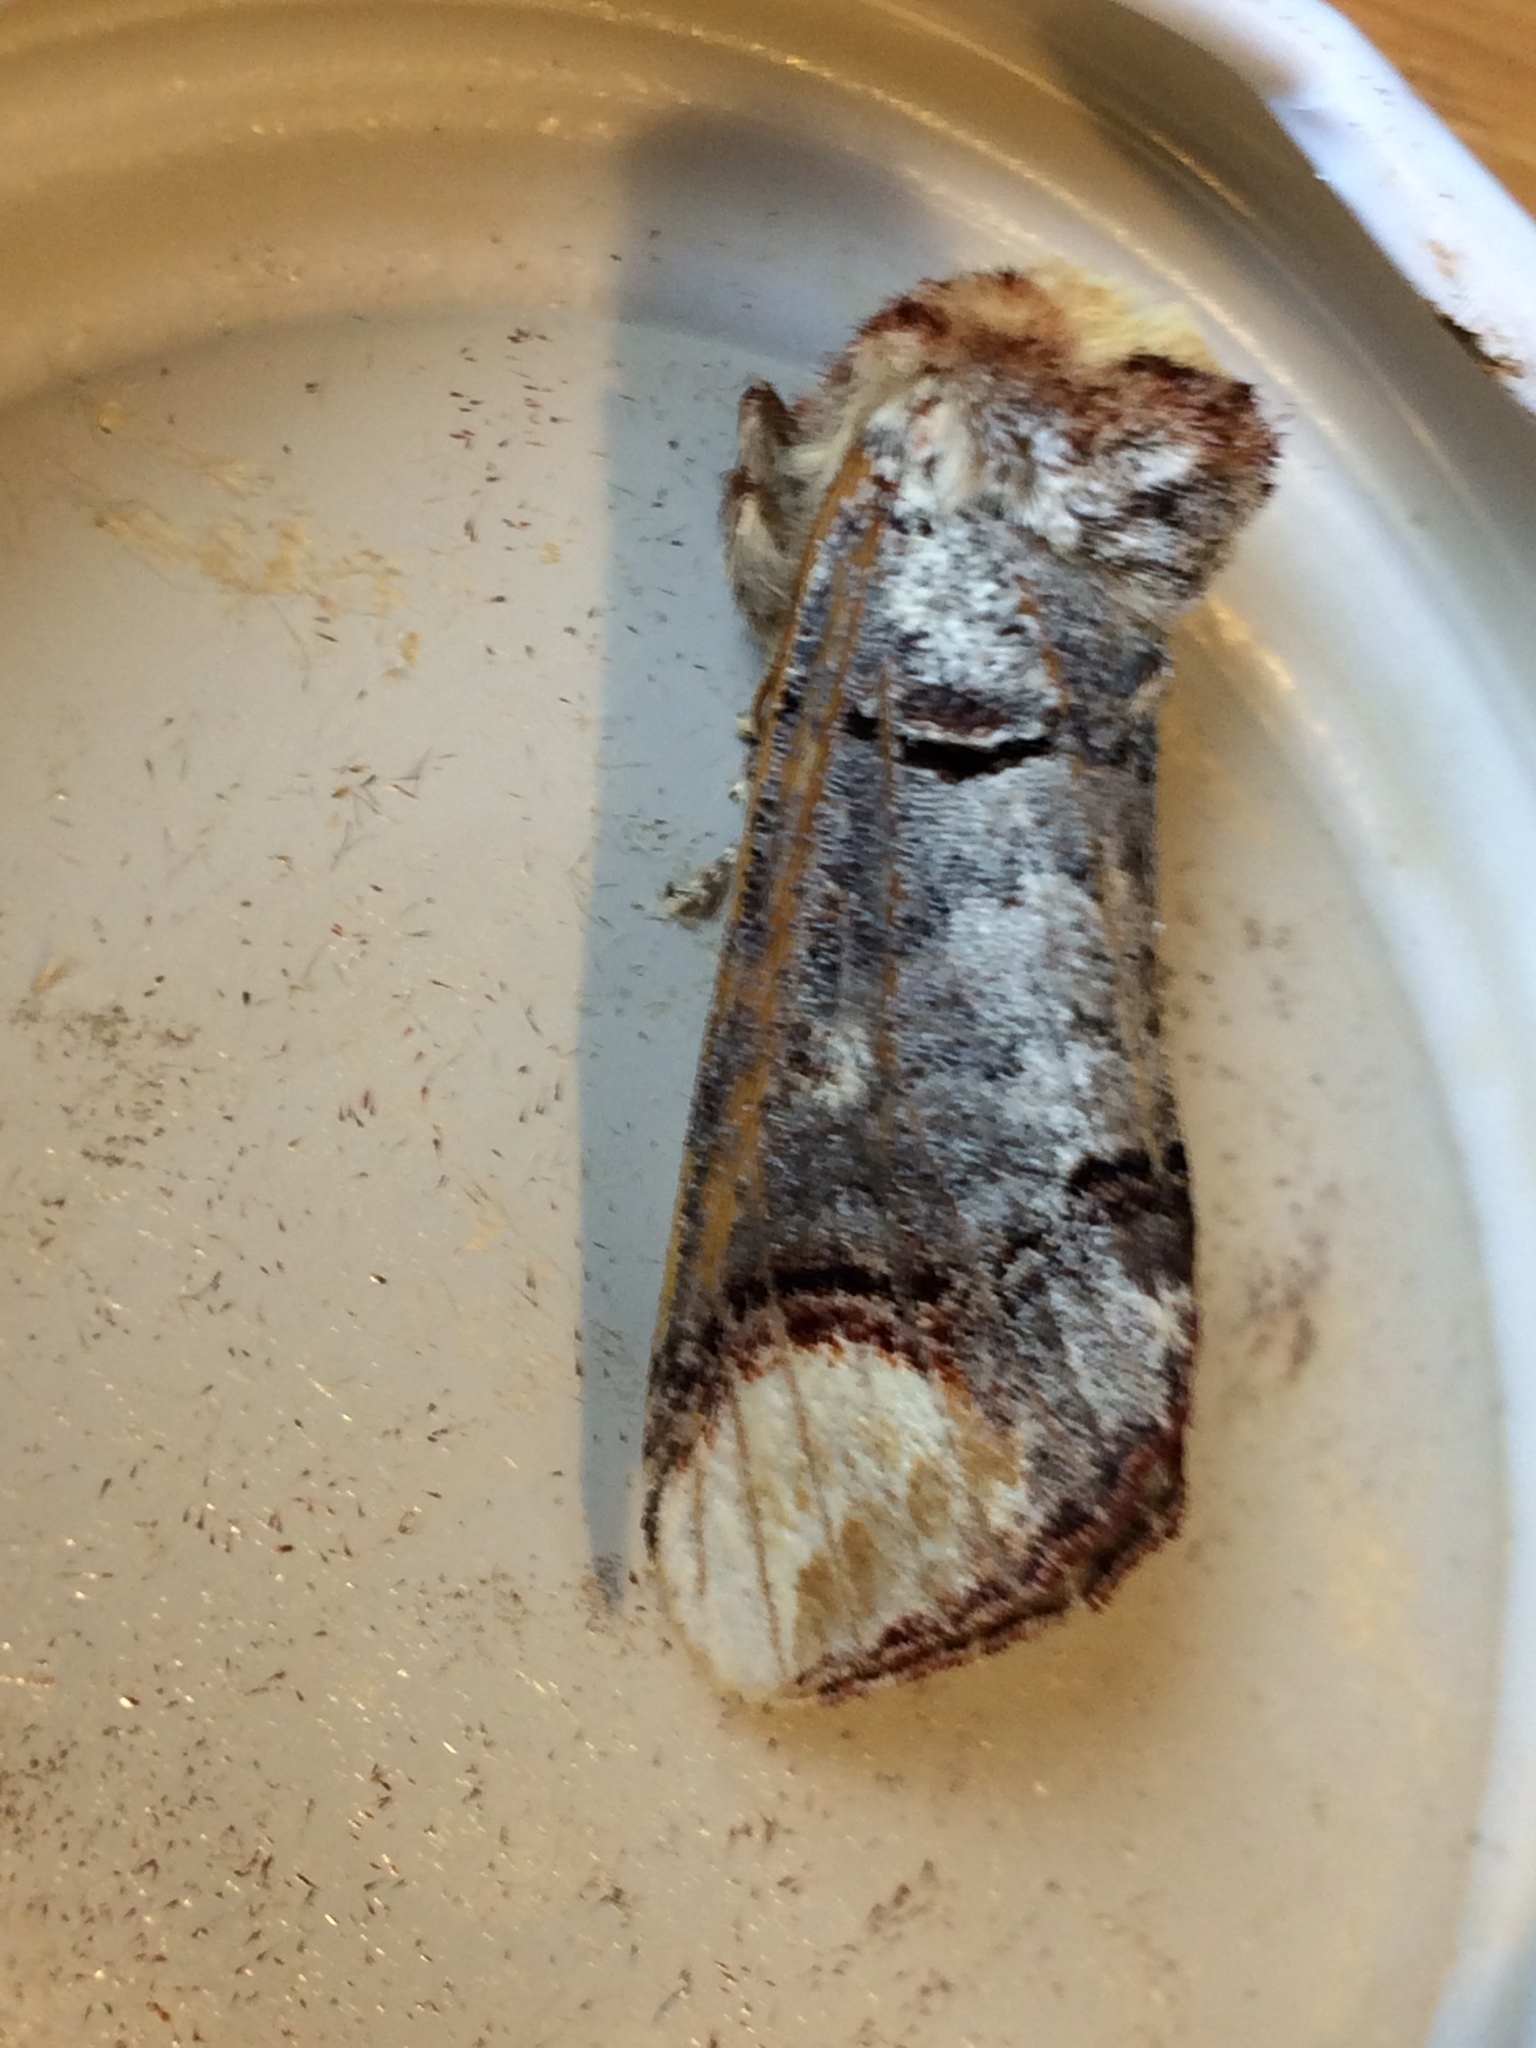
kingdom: Animalia
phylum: Arthropoda
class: Insecta
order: Lepidoptera
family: Notodontidae
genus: Phalera
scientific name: Phalera bucephala
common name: Buff-tip
